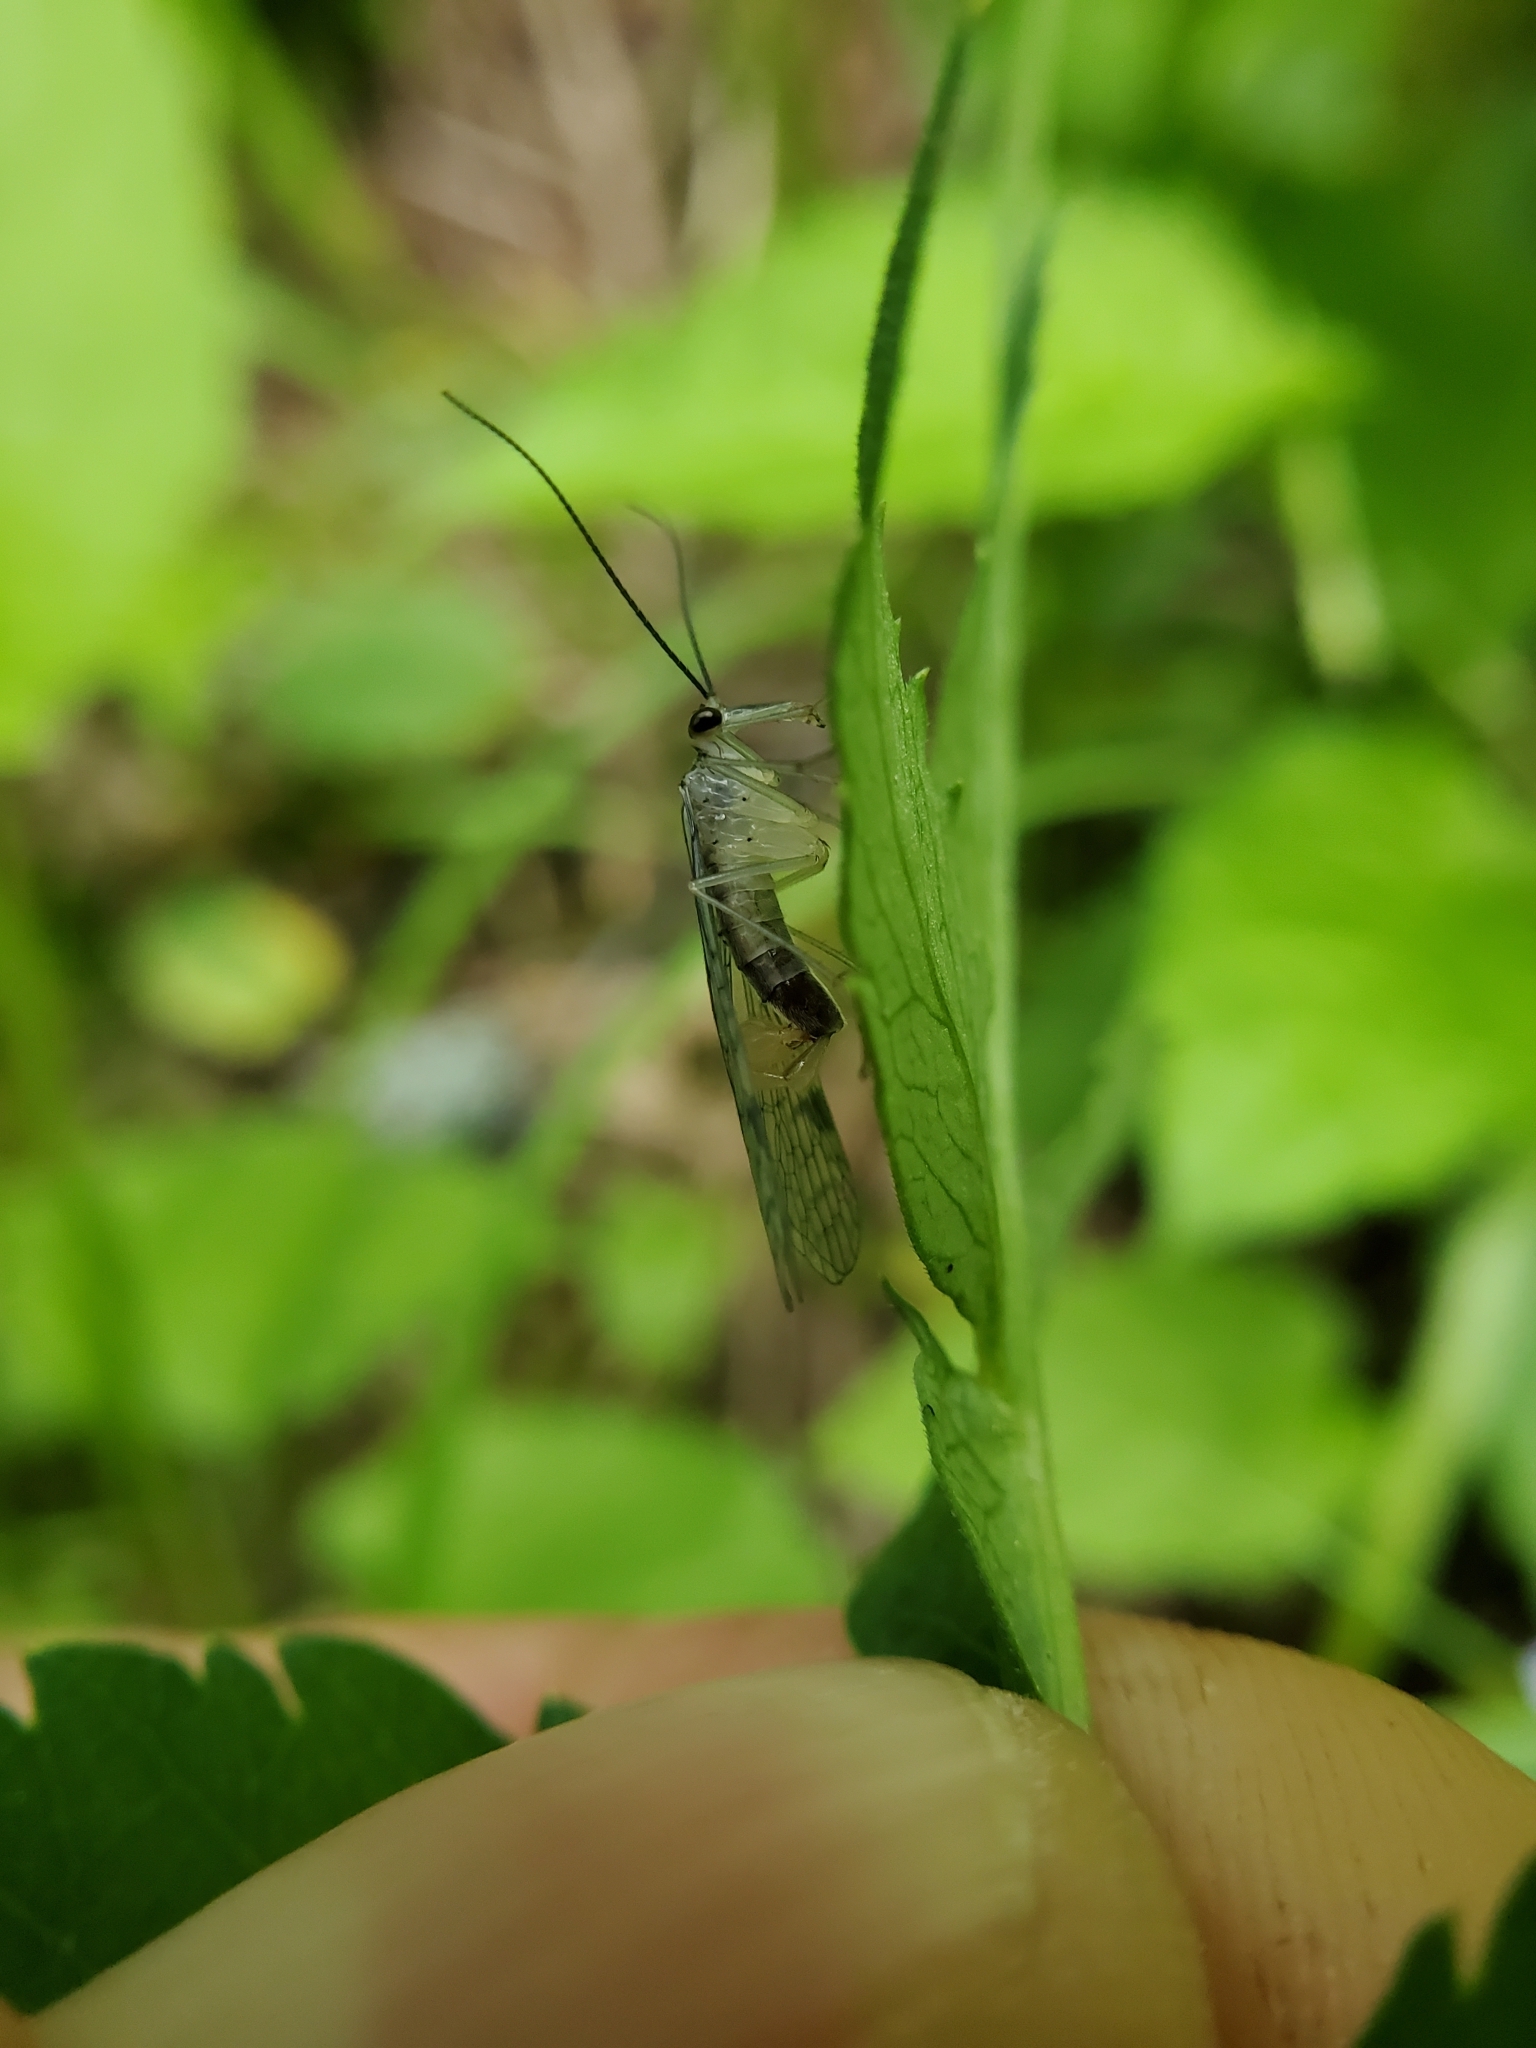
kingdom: Animalia
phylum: Arthropoda
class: Insecta
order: Mecoptera
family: Panorpidae
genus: Panorpa
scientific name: Panorpa flexa
